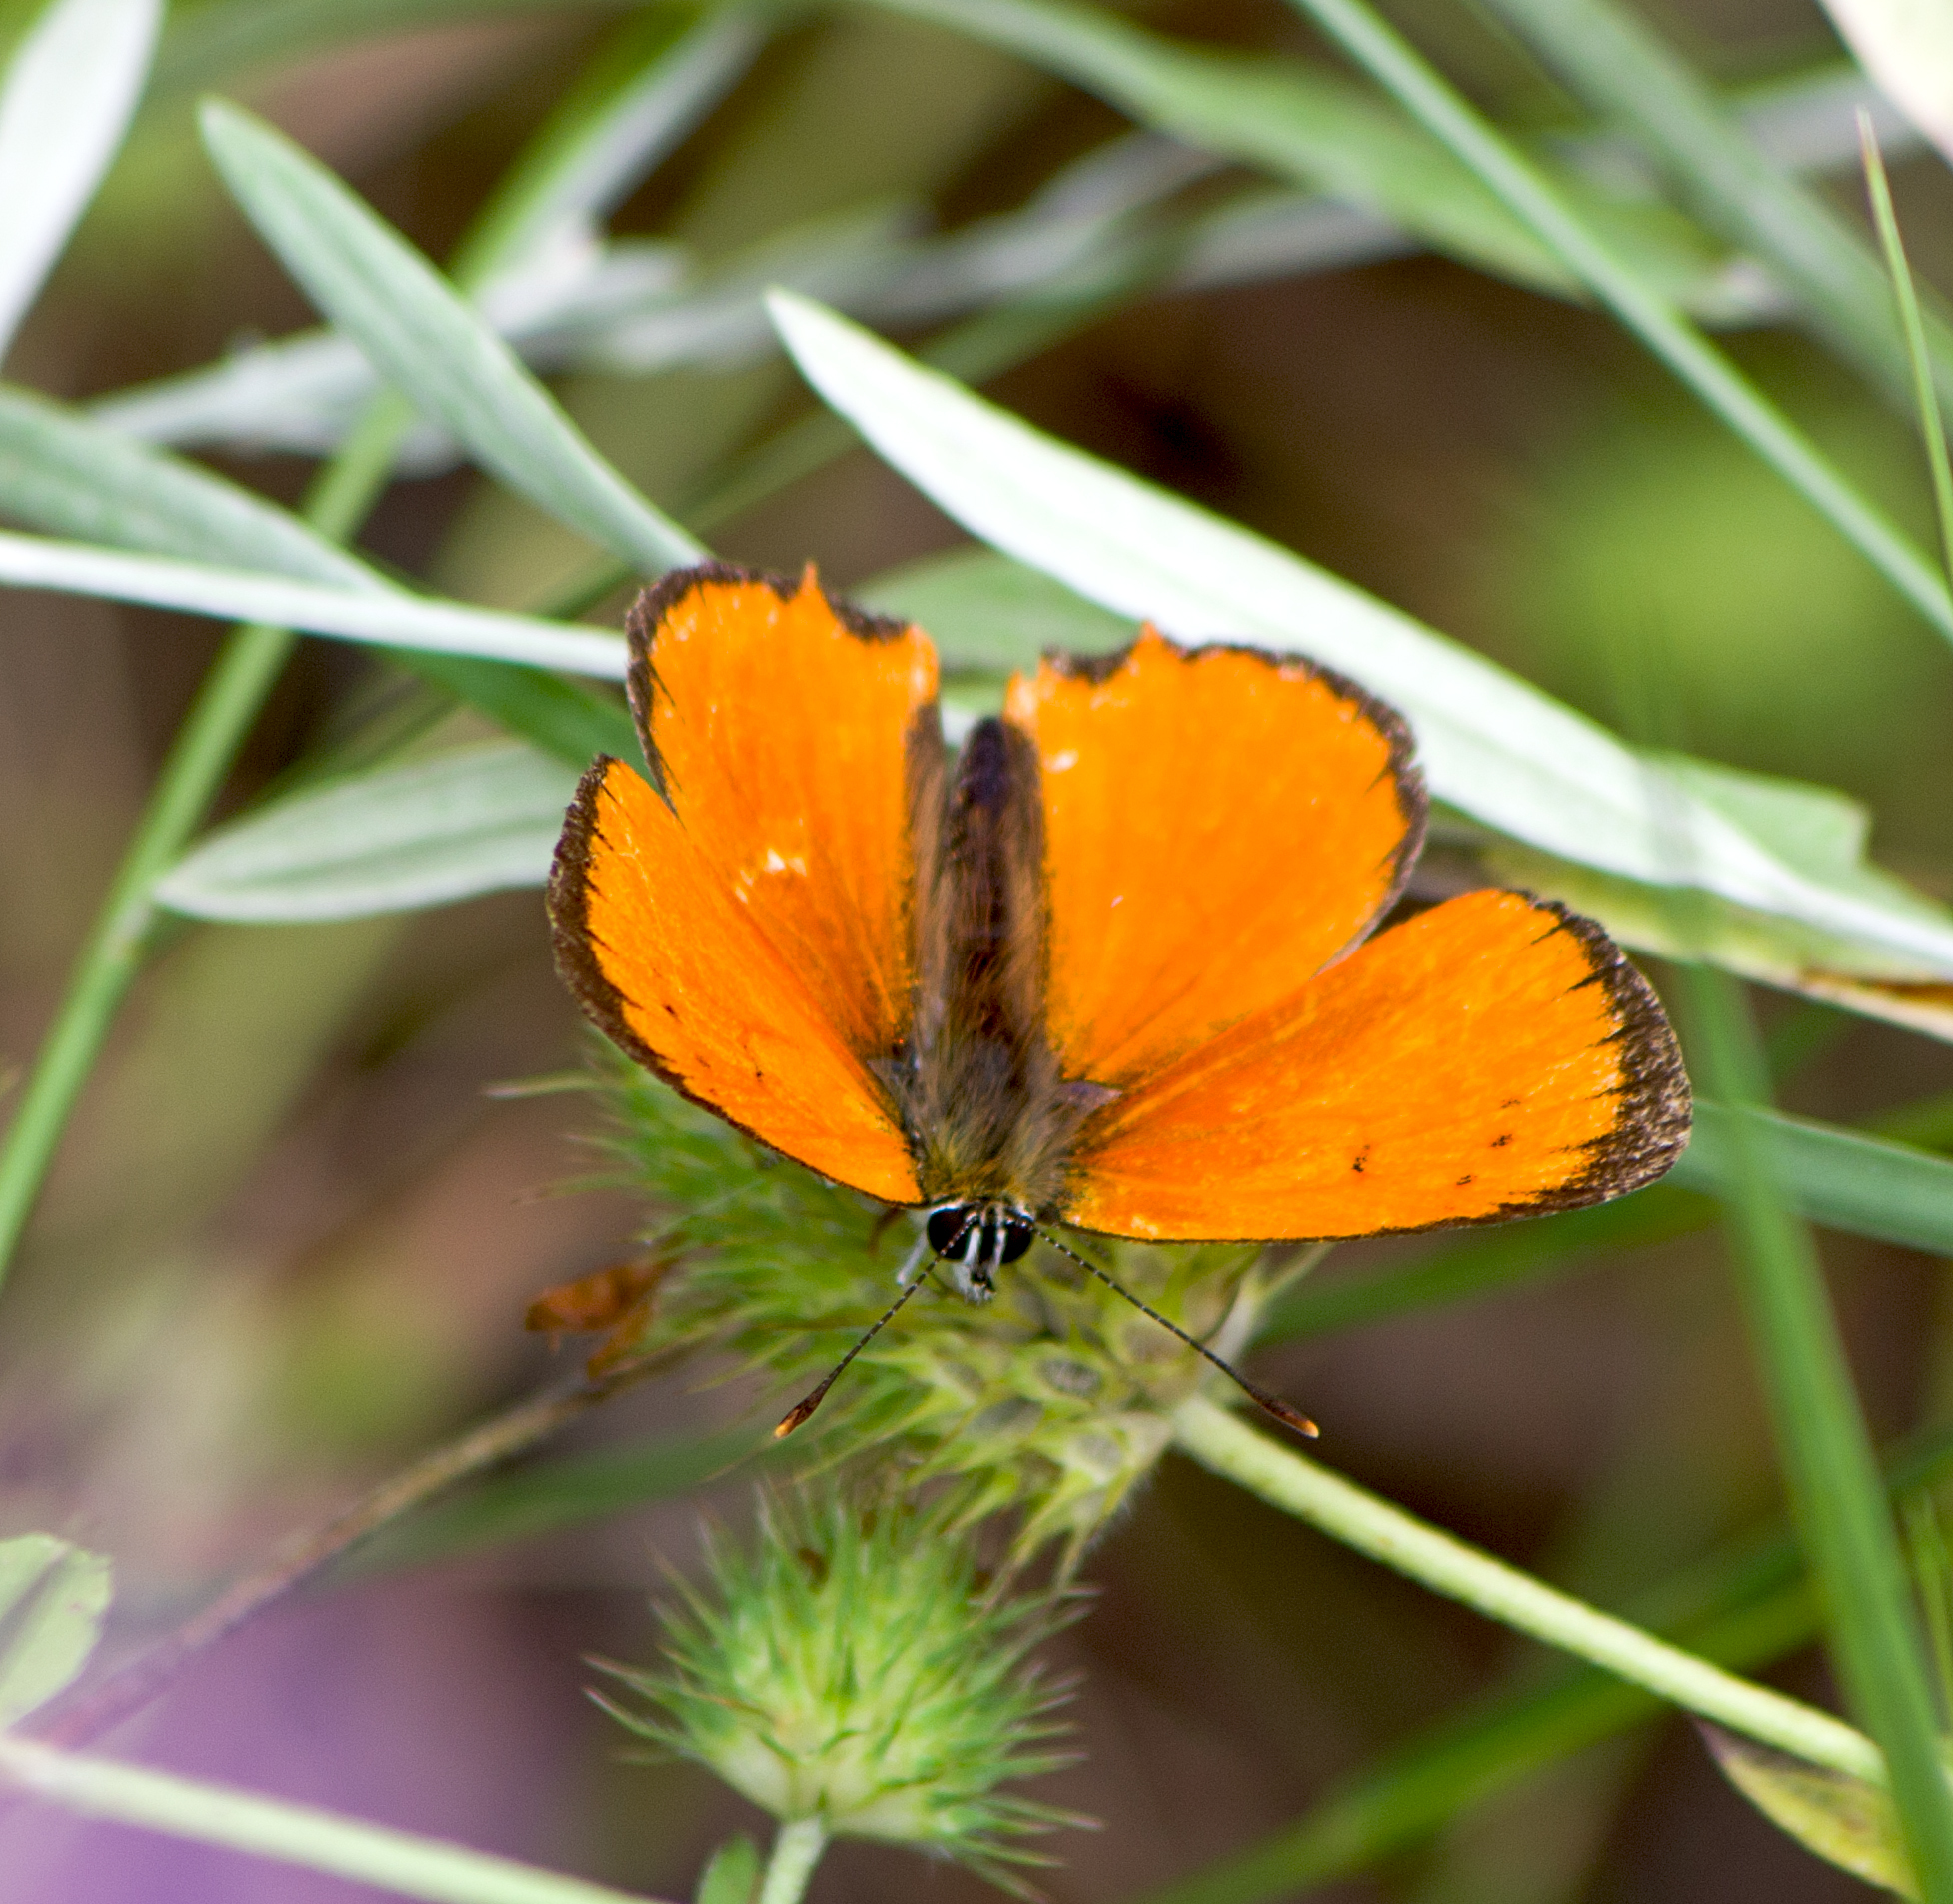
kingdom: Animalia
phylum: Arthropoda
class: Insecta
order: Lepidoptera
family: Lycaenidae
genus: Polyommatus
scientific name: Polyommatus ottomanus
